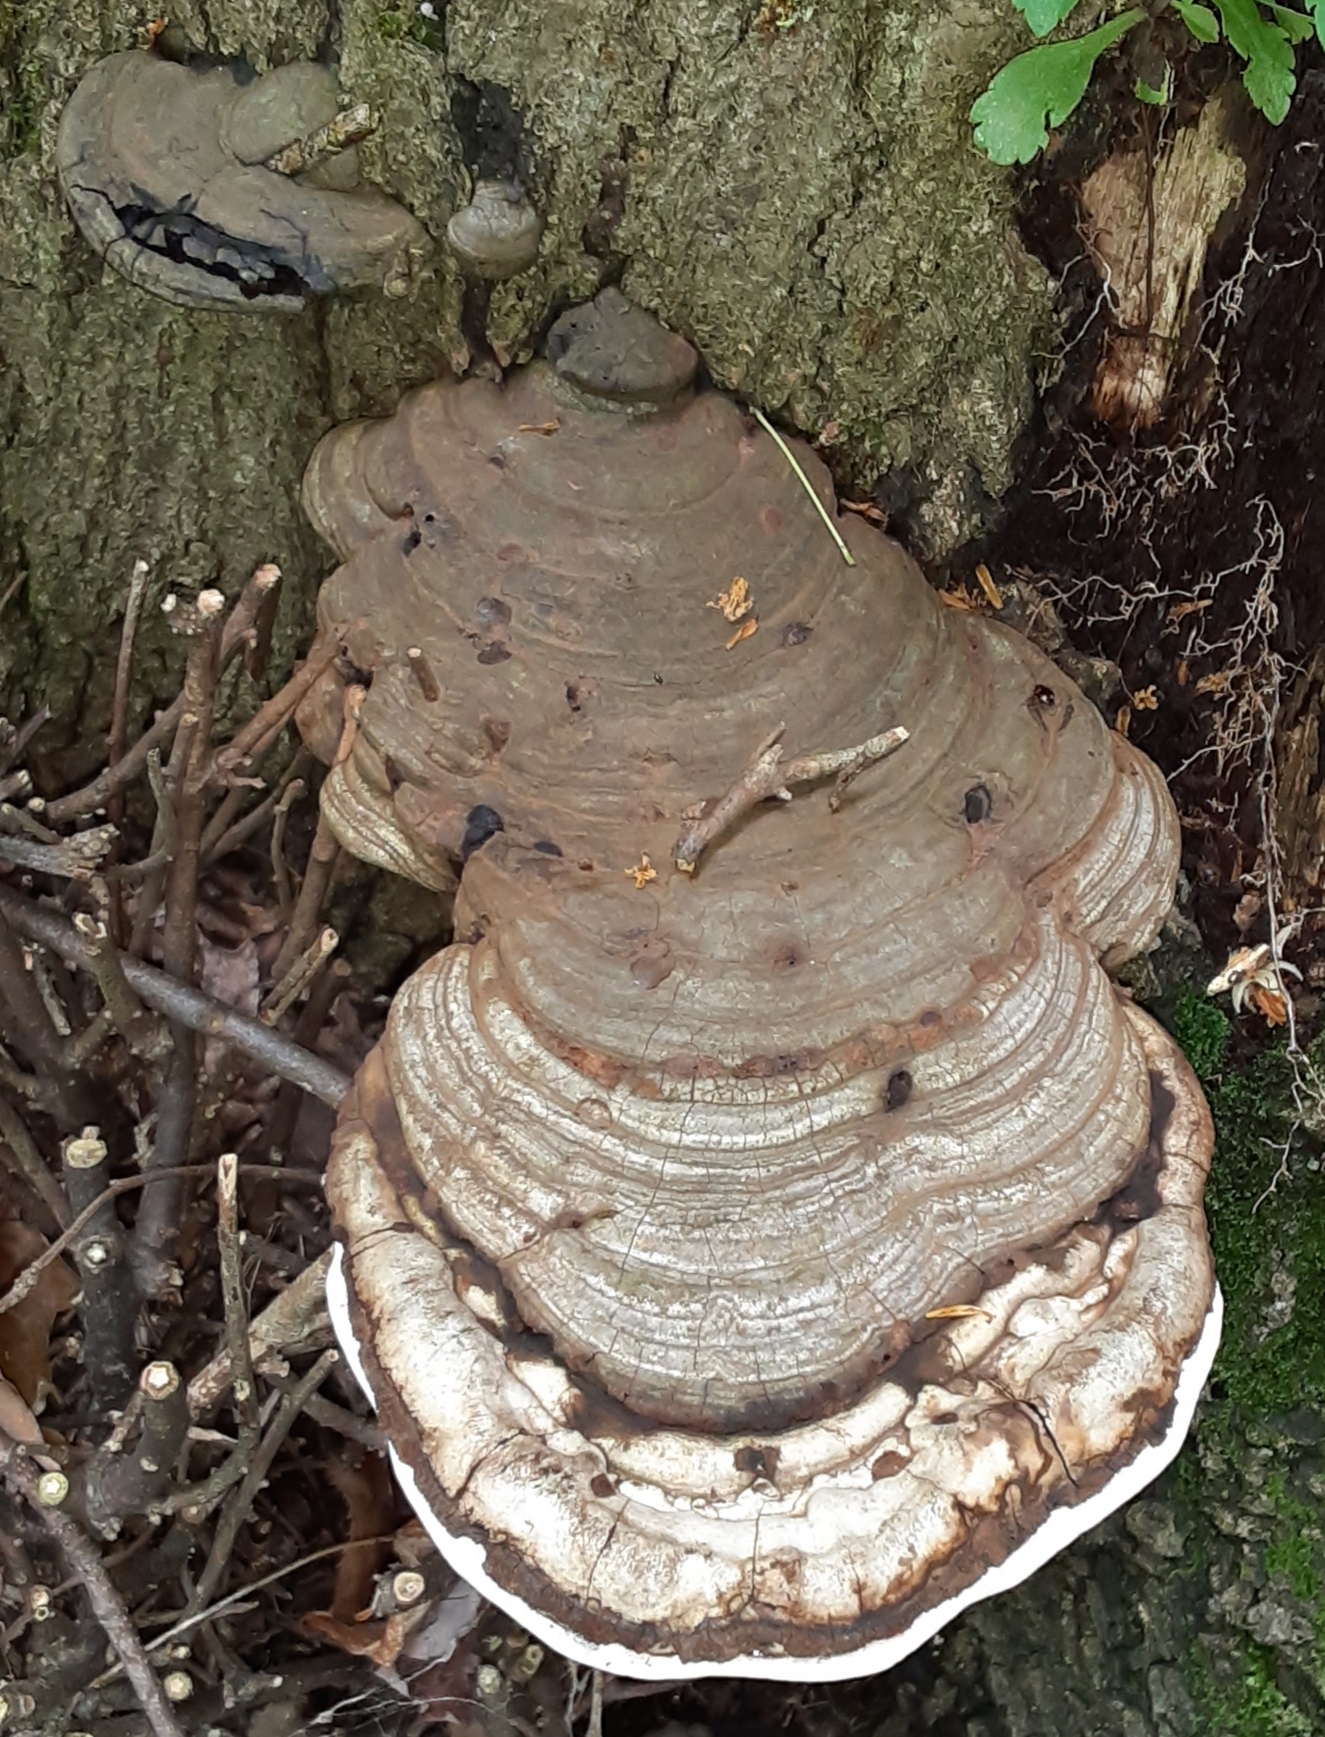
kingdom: Fungi
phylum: Basidiomycota
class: Agaricomycetes
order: Polyporales
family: Polyporaceae
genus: Ganoderma
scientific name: Ganoderma applanatum
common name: Artist's bracket
